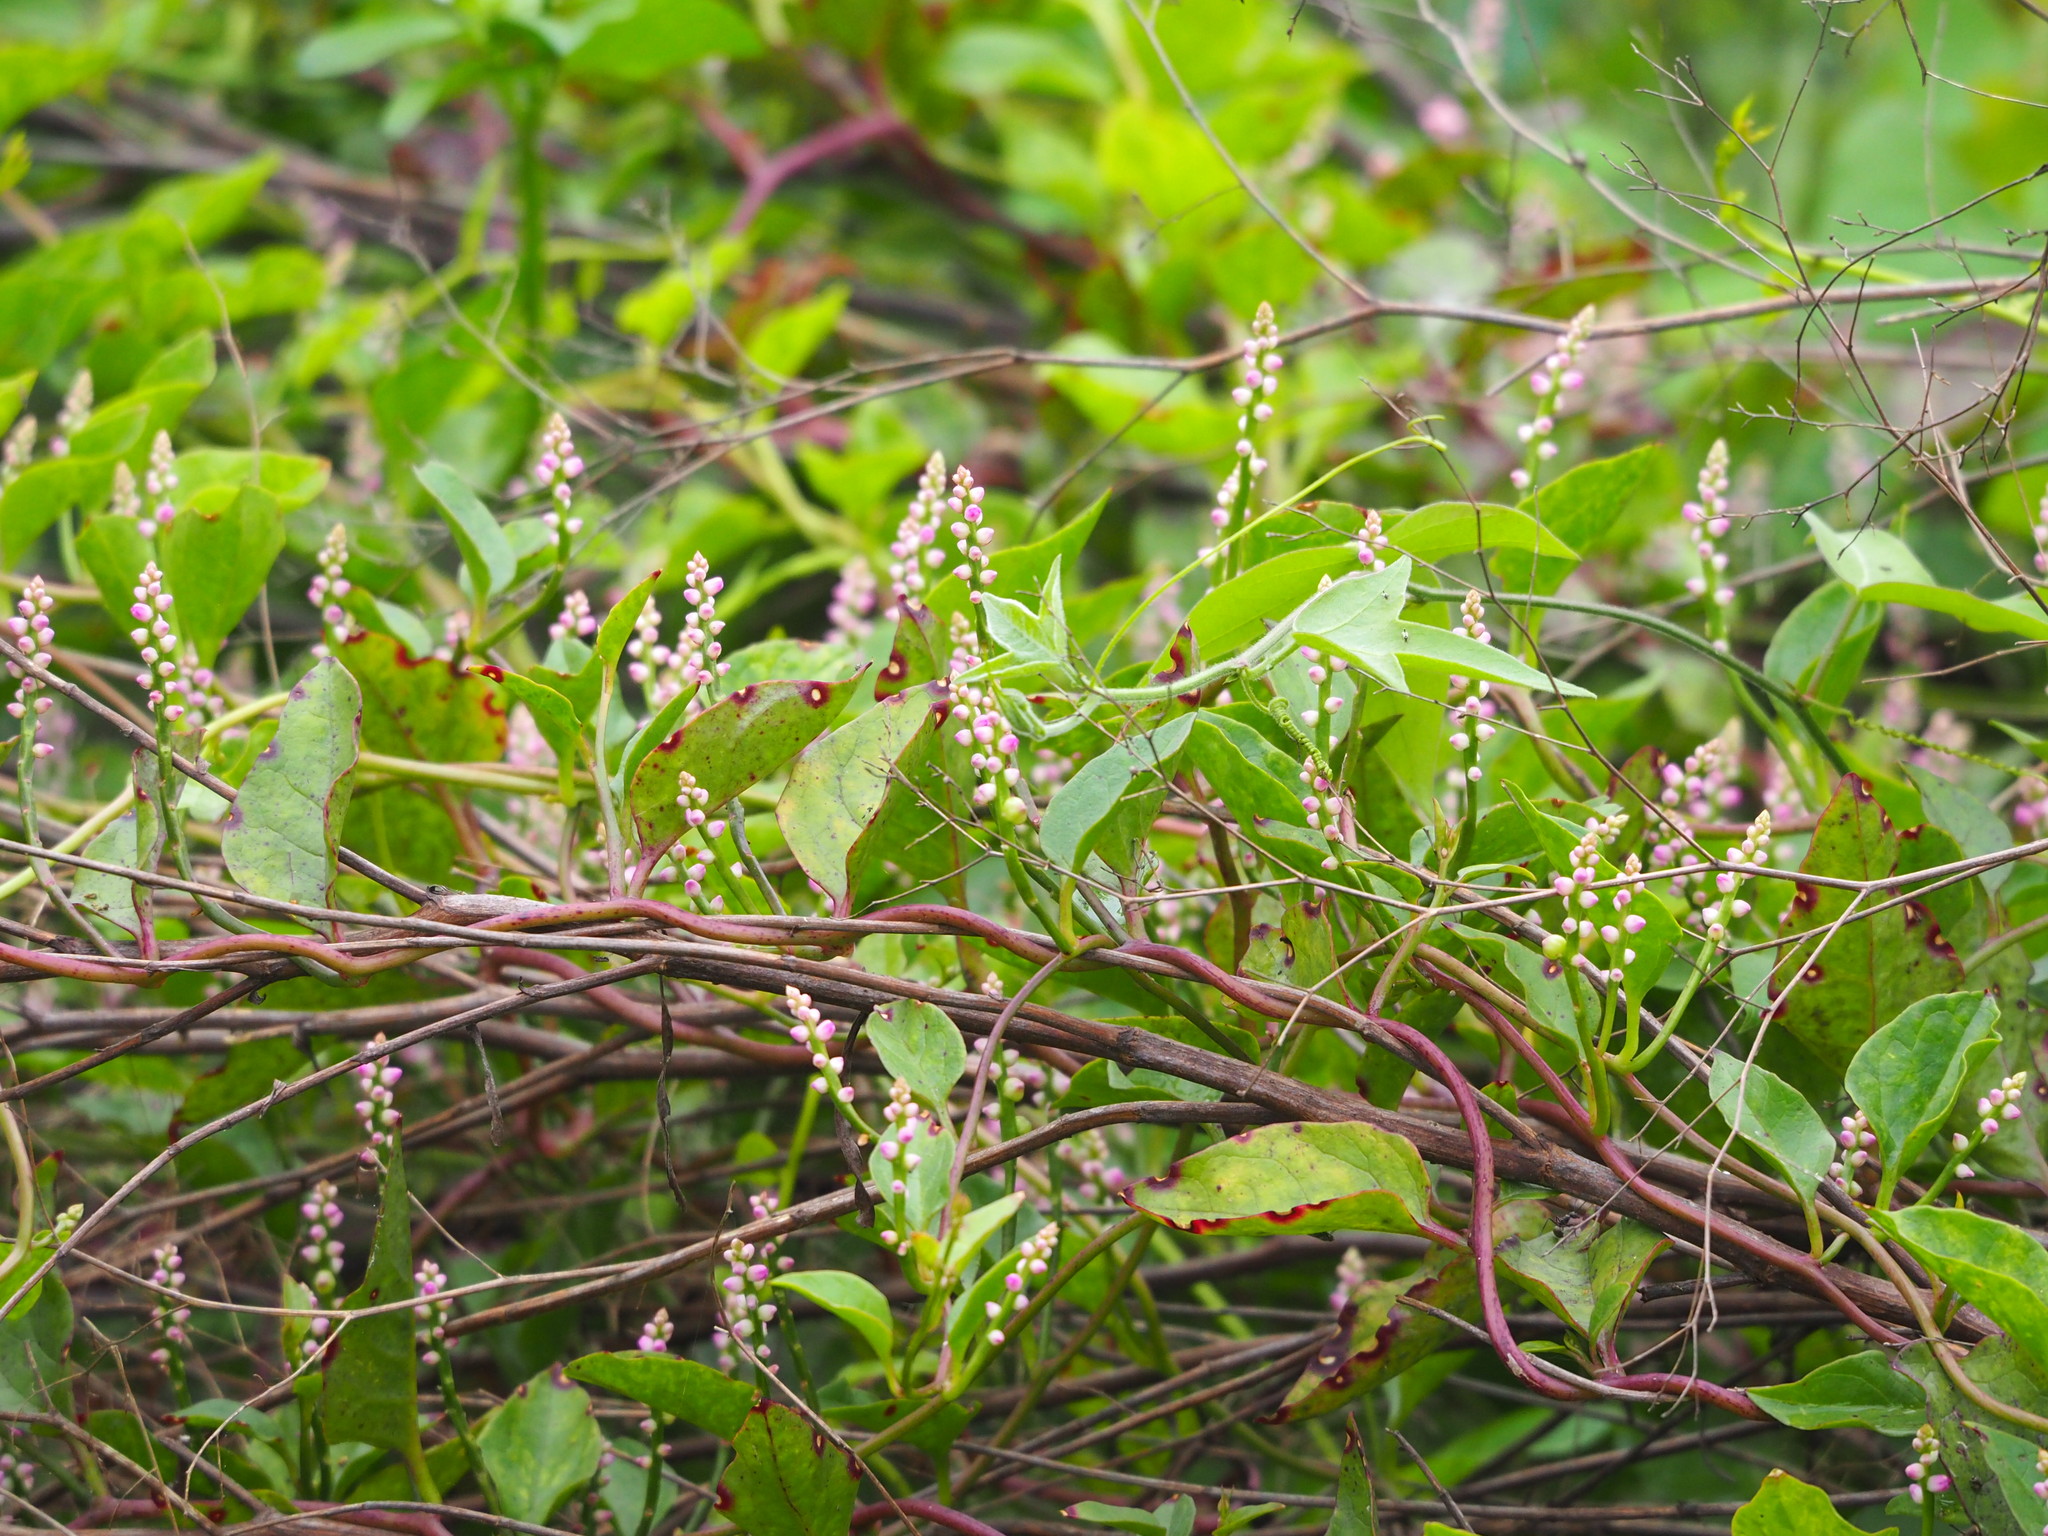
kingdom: Plantae
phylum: Tracheophyta
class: Magnoliopsida
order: Caryophyllales
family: Basellaceae
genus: Basella
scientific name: Basella alba
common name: Indian spinach
